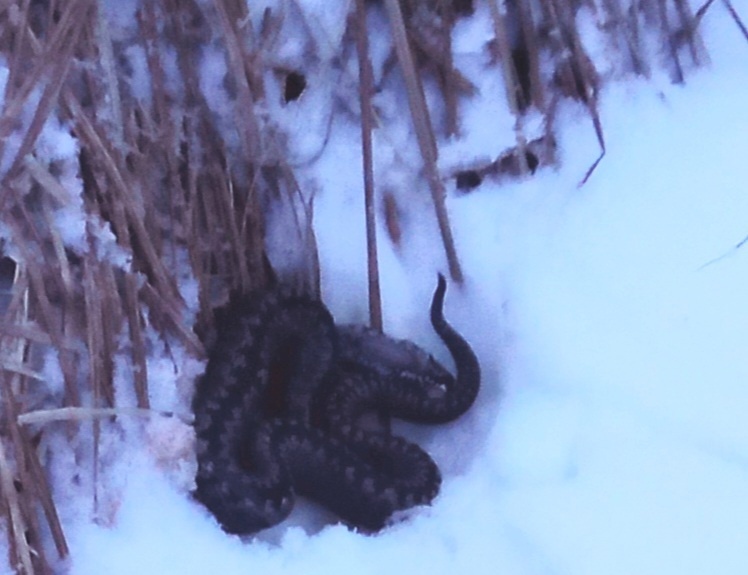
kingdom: Animalia
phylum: Chordata
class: Squamata
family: Viperidae
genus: Vipera
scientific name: Vipera berus
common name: Adder
